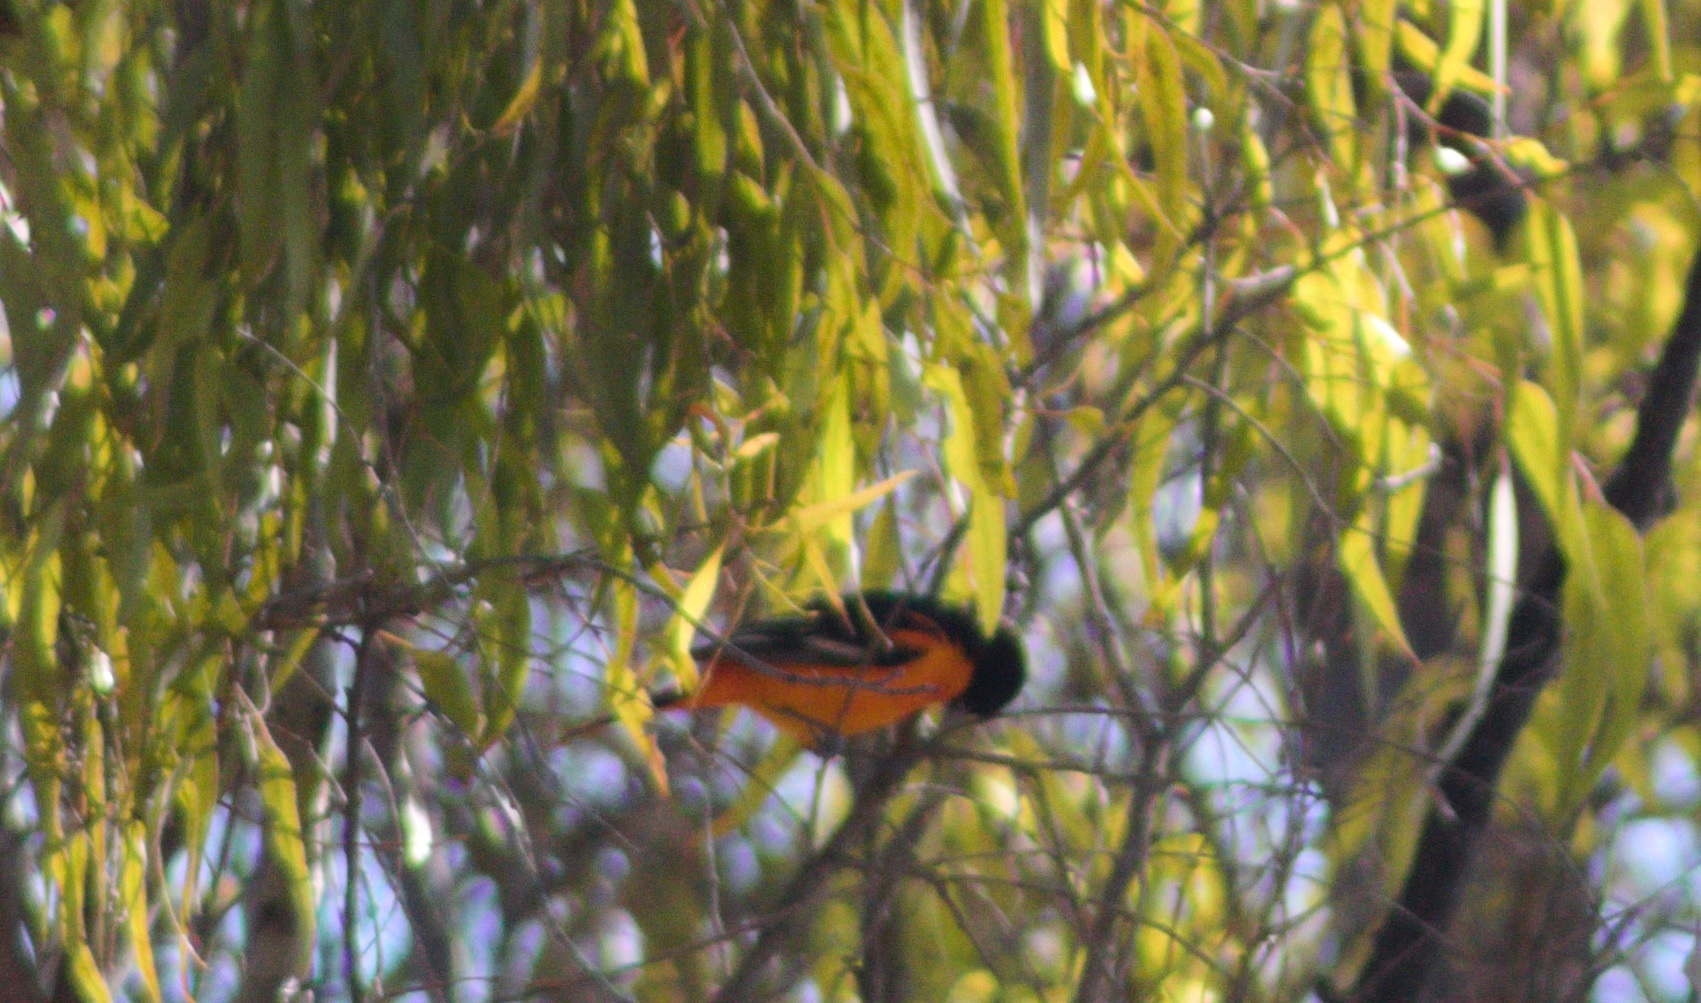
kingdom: Animalia
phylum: Chordata
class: Aves
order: Passeriformes
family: Icteridae
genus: Icterus
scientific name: Icterus galbula
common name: Baltimore oriole
